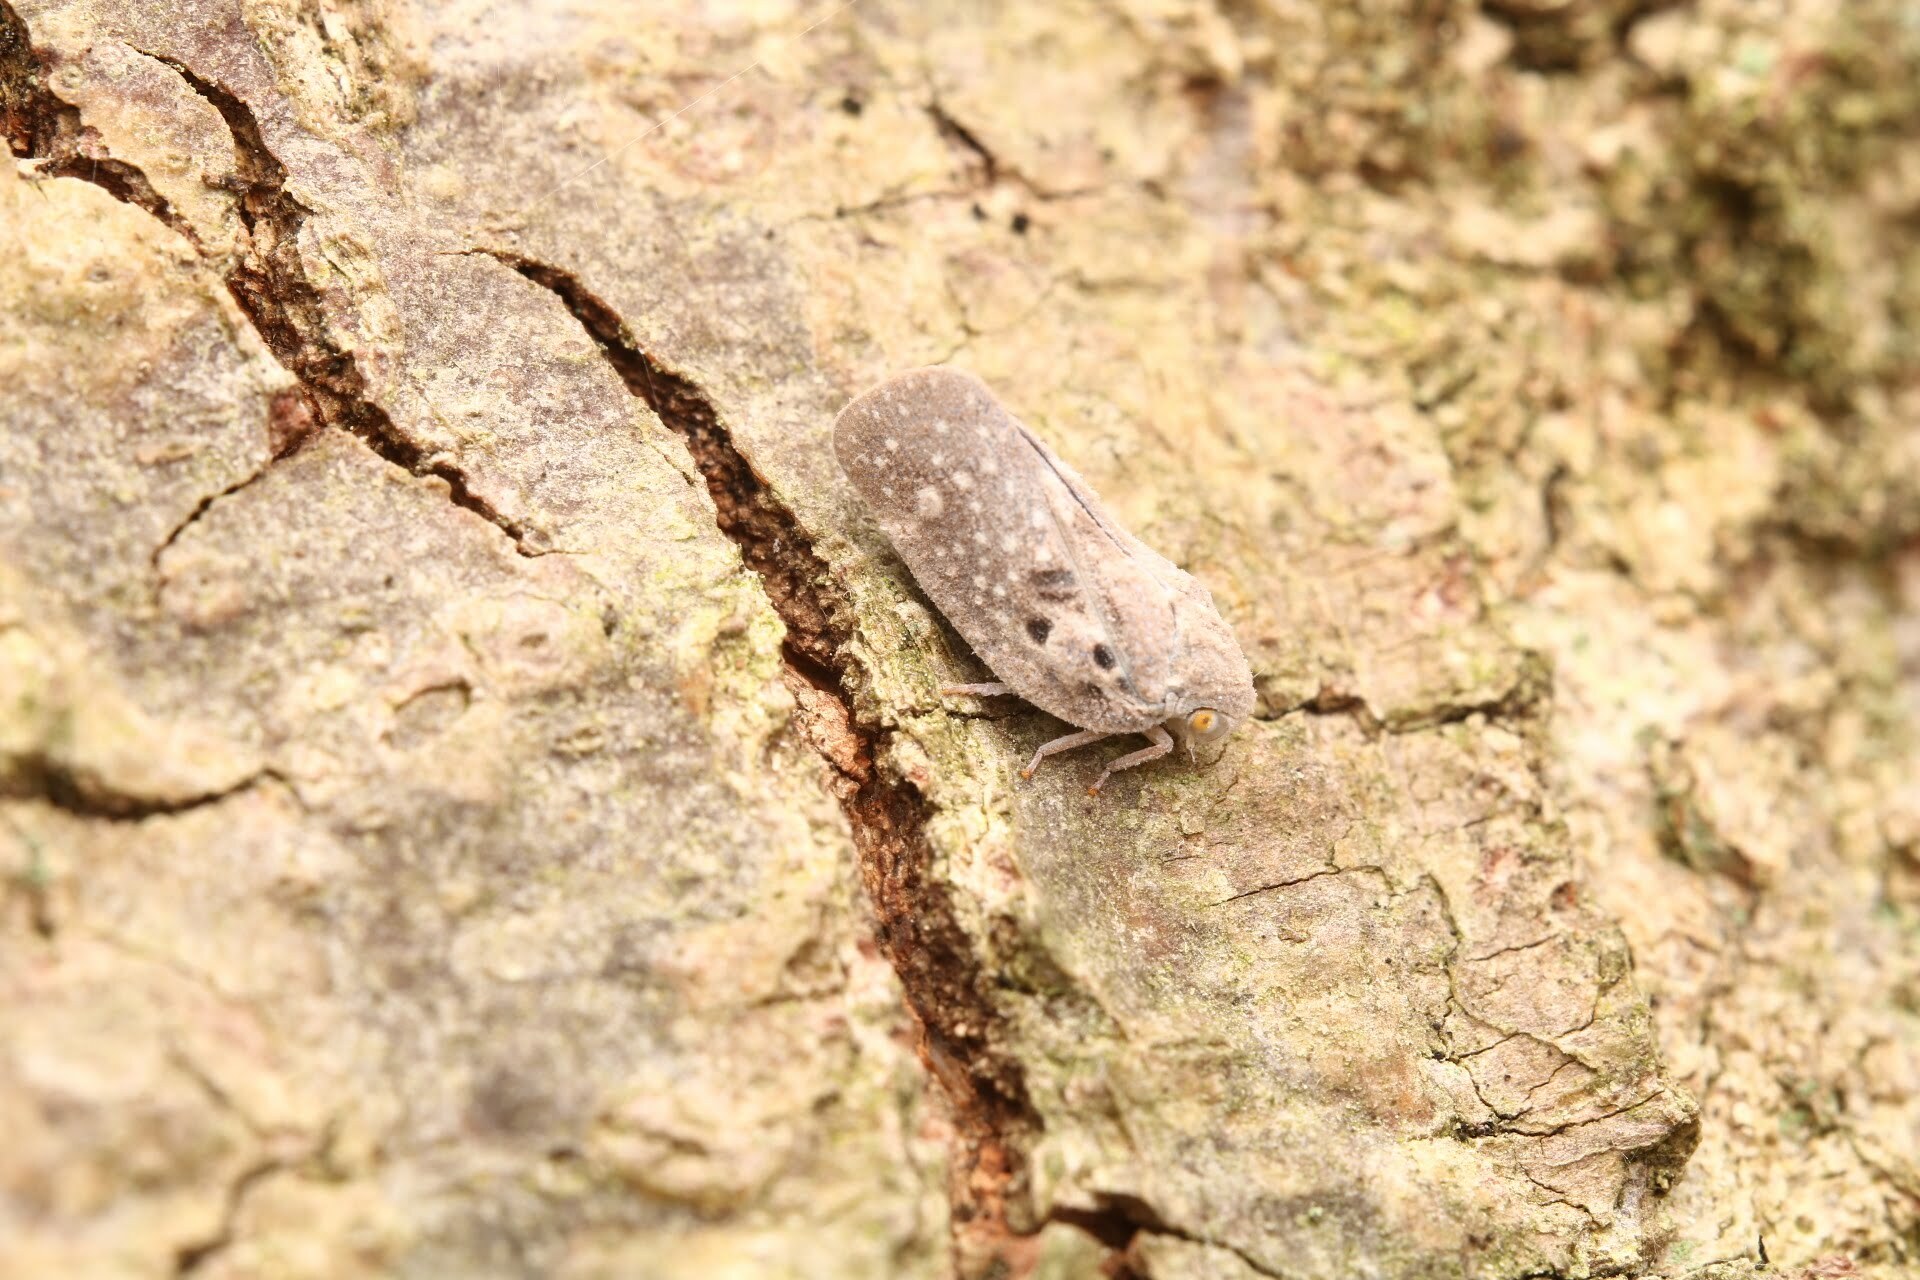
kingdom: Animalia
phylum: Arthropoda
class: Insecta
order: Hemiptera
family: Flatidae
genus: Metcalfa
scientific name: Metcalfa pruinosa
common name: Citrus flatid planthopper
